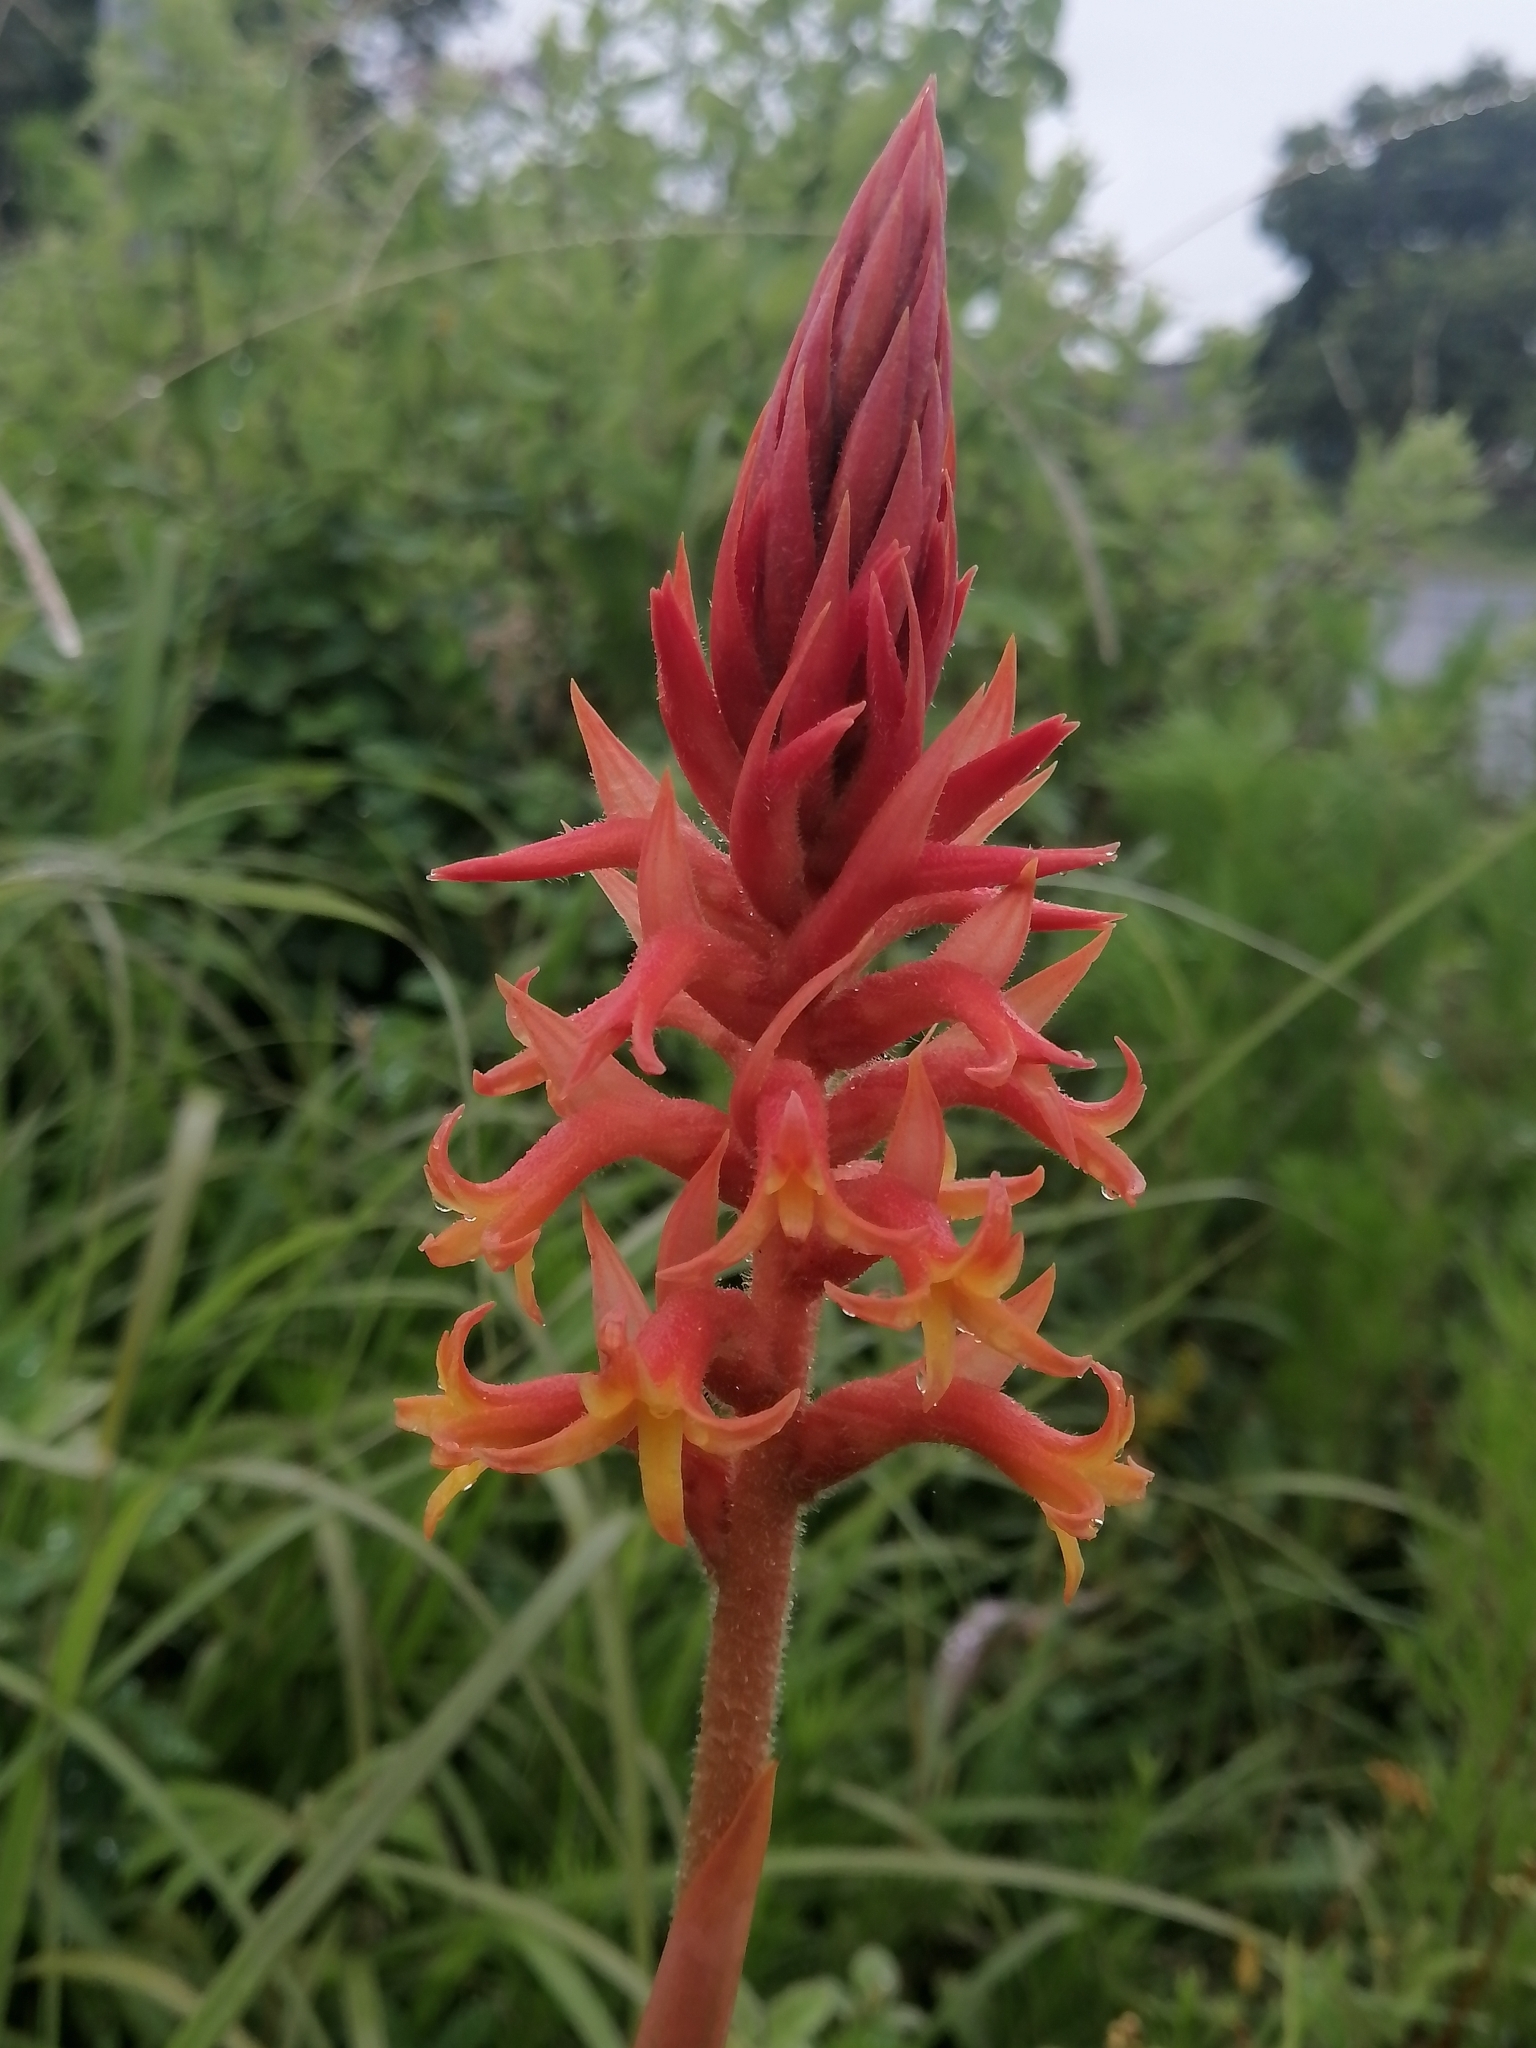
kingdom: Plantae
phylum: Tracheophyta
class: Liliopsida
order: Asparagales
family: Orchidaceae
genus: Dichromanthus
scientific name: Dichromanthus cinnabarinus
